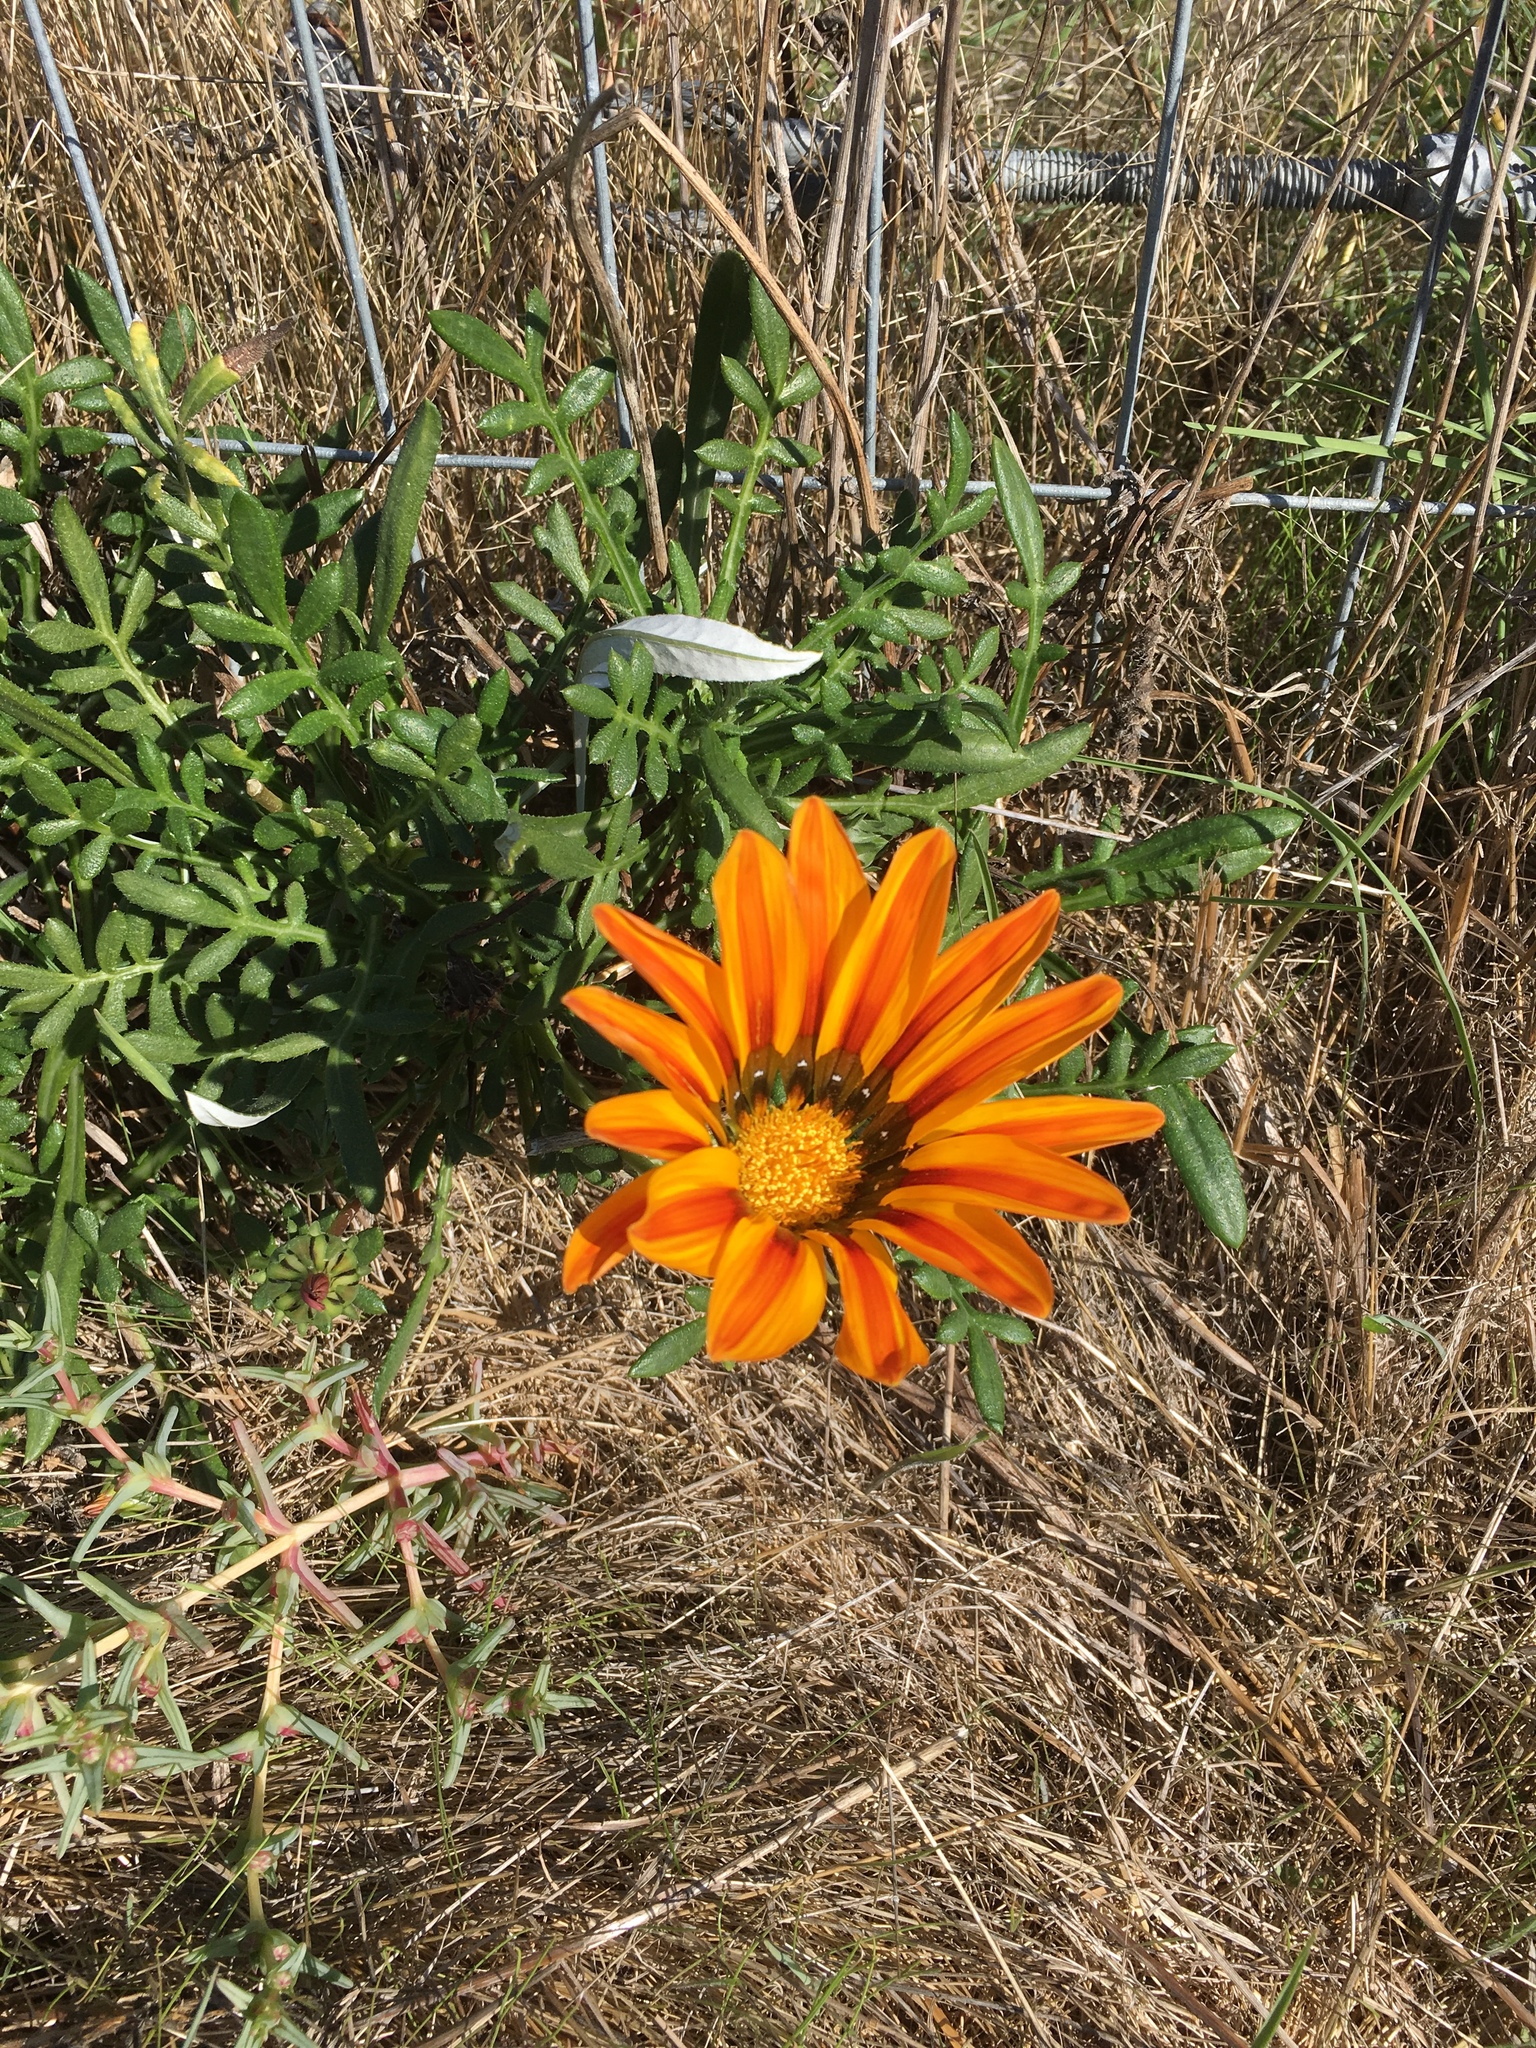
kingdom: Plantae
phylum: Tracheophyta
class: Magnoliopsida
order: Asterales
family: Asteraceae
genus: Gazania
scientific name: Gazania linearis
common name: Treasureflower
